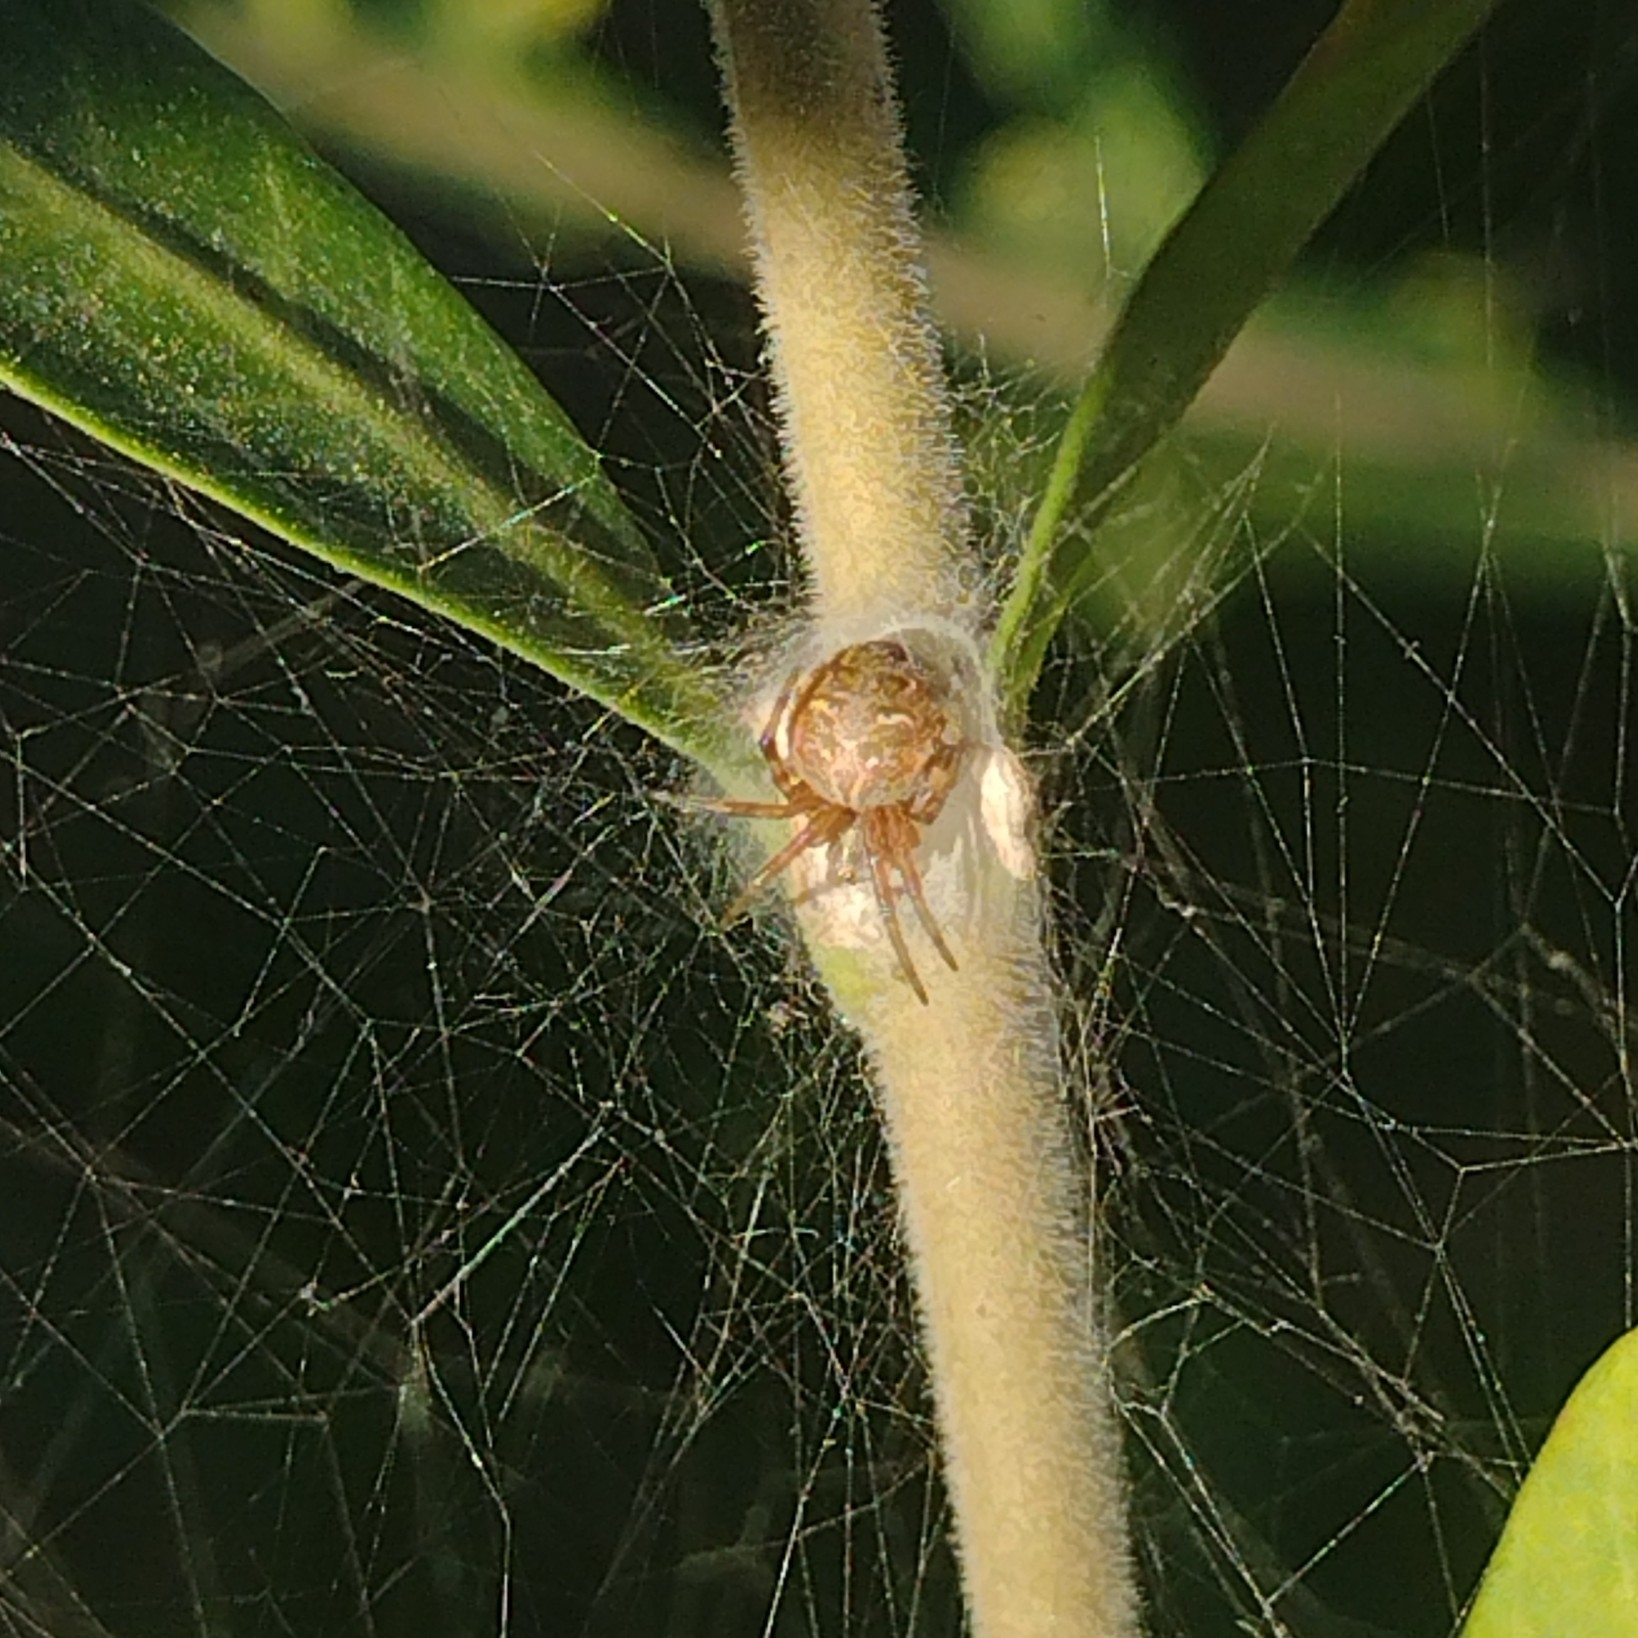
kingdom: Animalia
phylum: Arthropoda
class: Arachnida
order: Araneae
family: Araneidae
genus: Metepeira
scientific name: Metepeira
